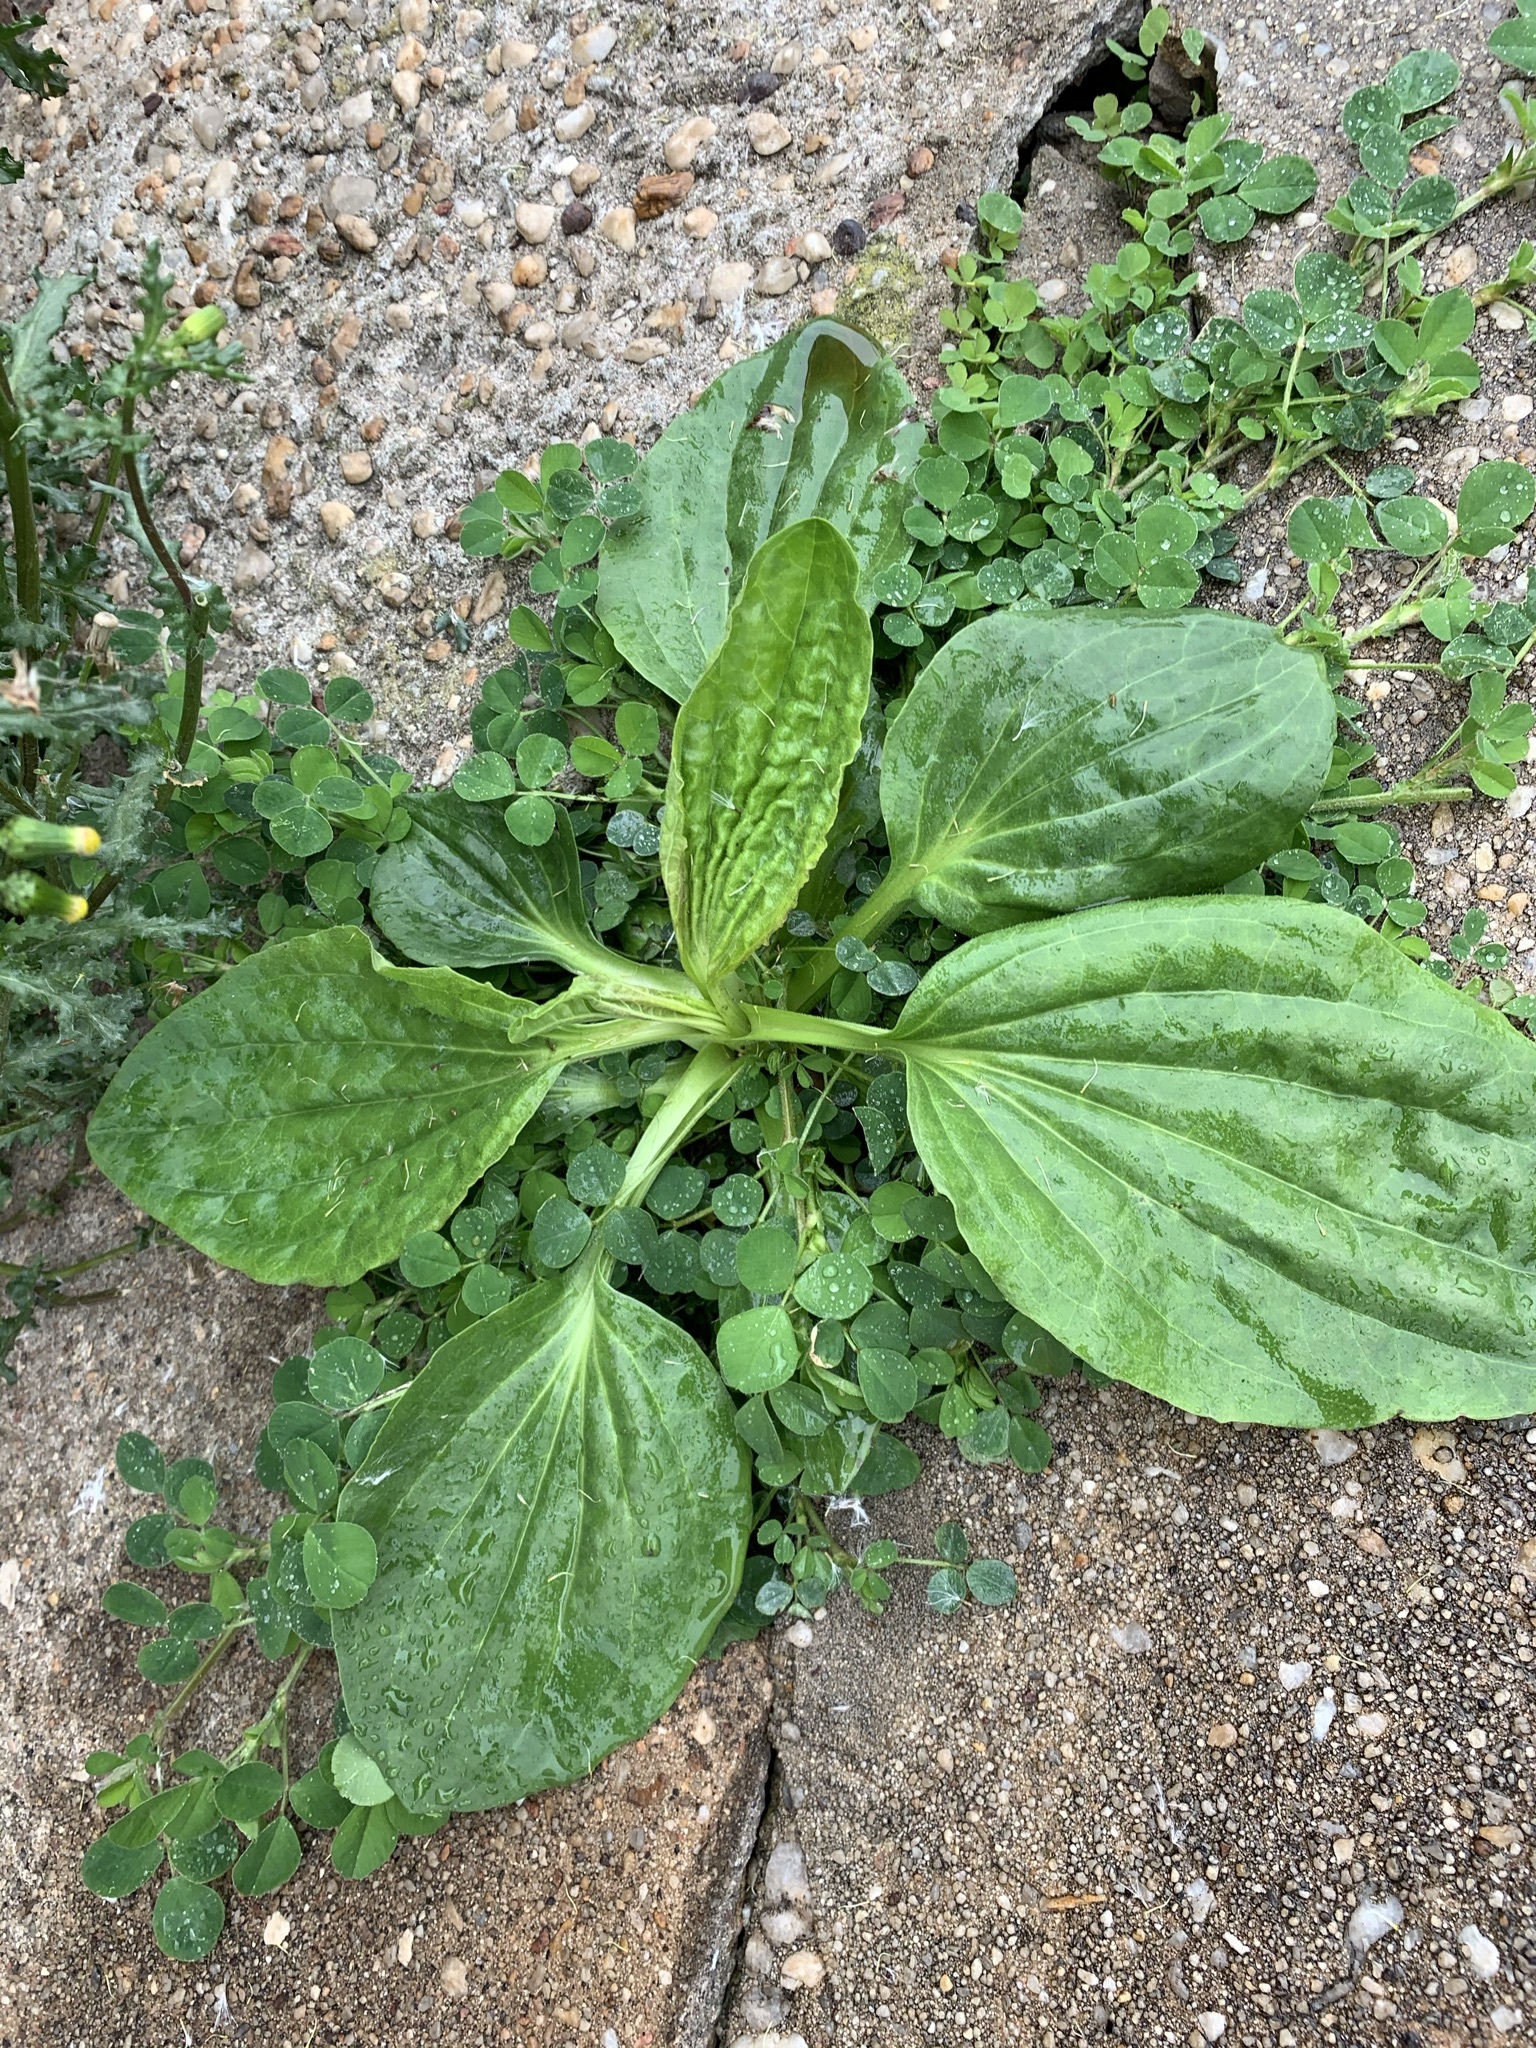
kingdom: Plantae
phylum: Tracheophyta
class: Magnoliopsida
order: Lamiales
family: Plantaginaceae
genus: Plantago
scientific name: Plantago major
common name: Common plantain
